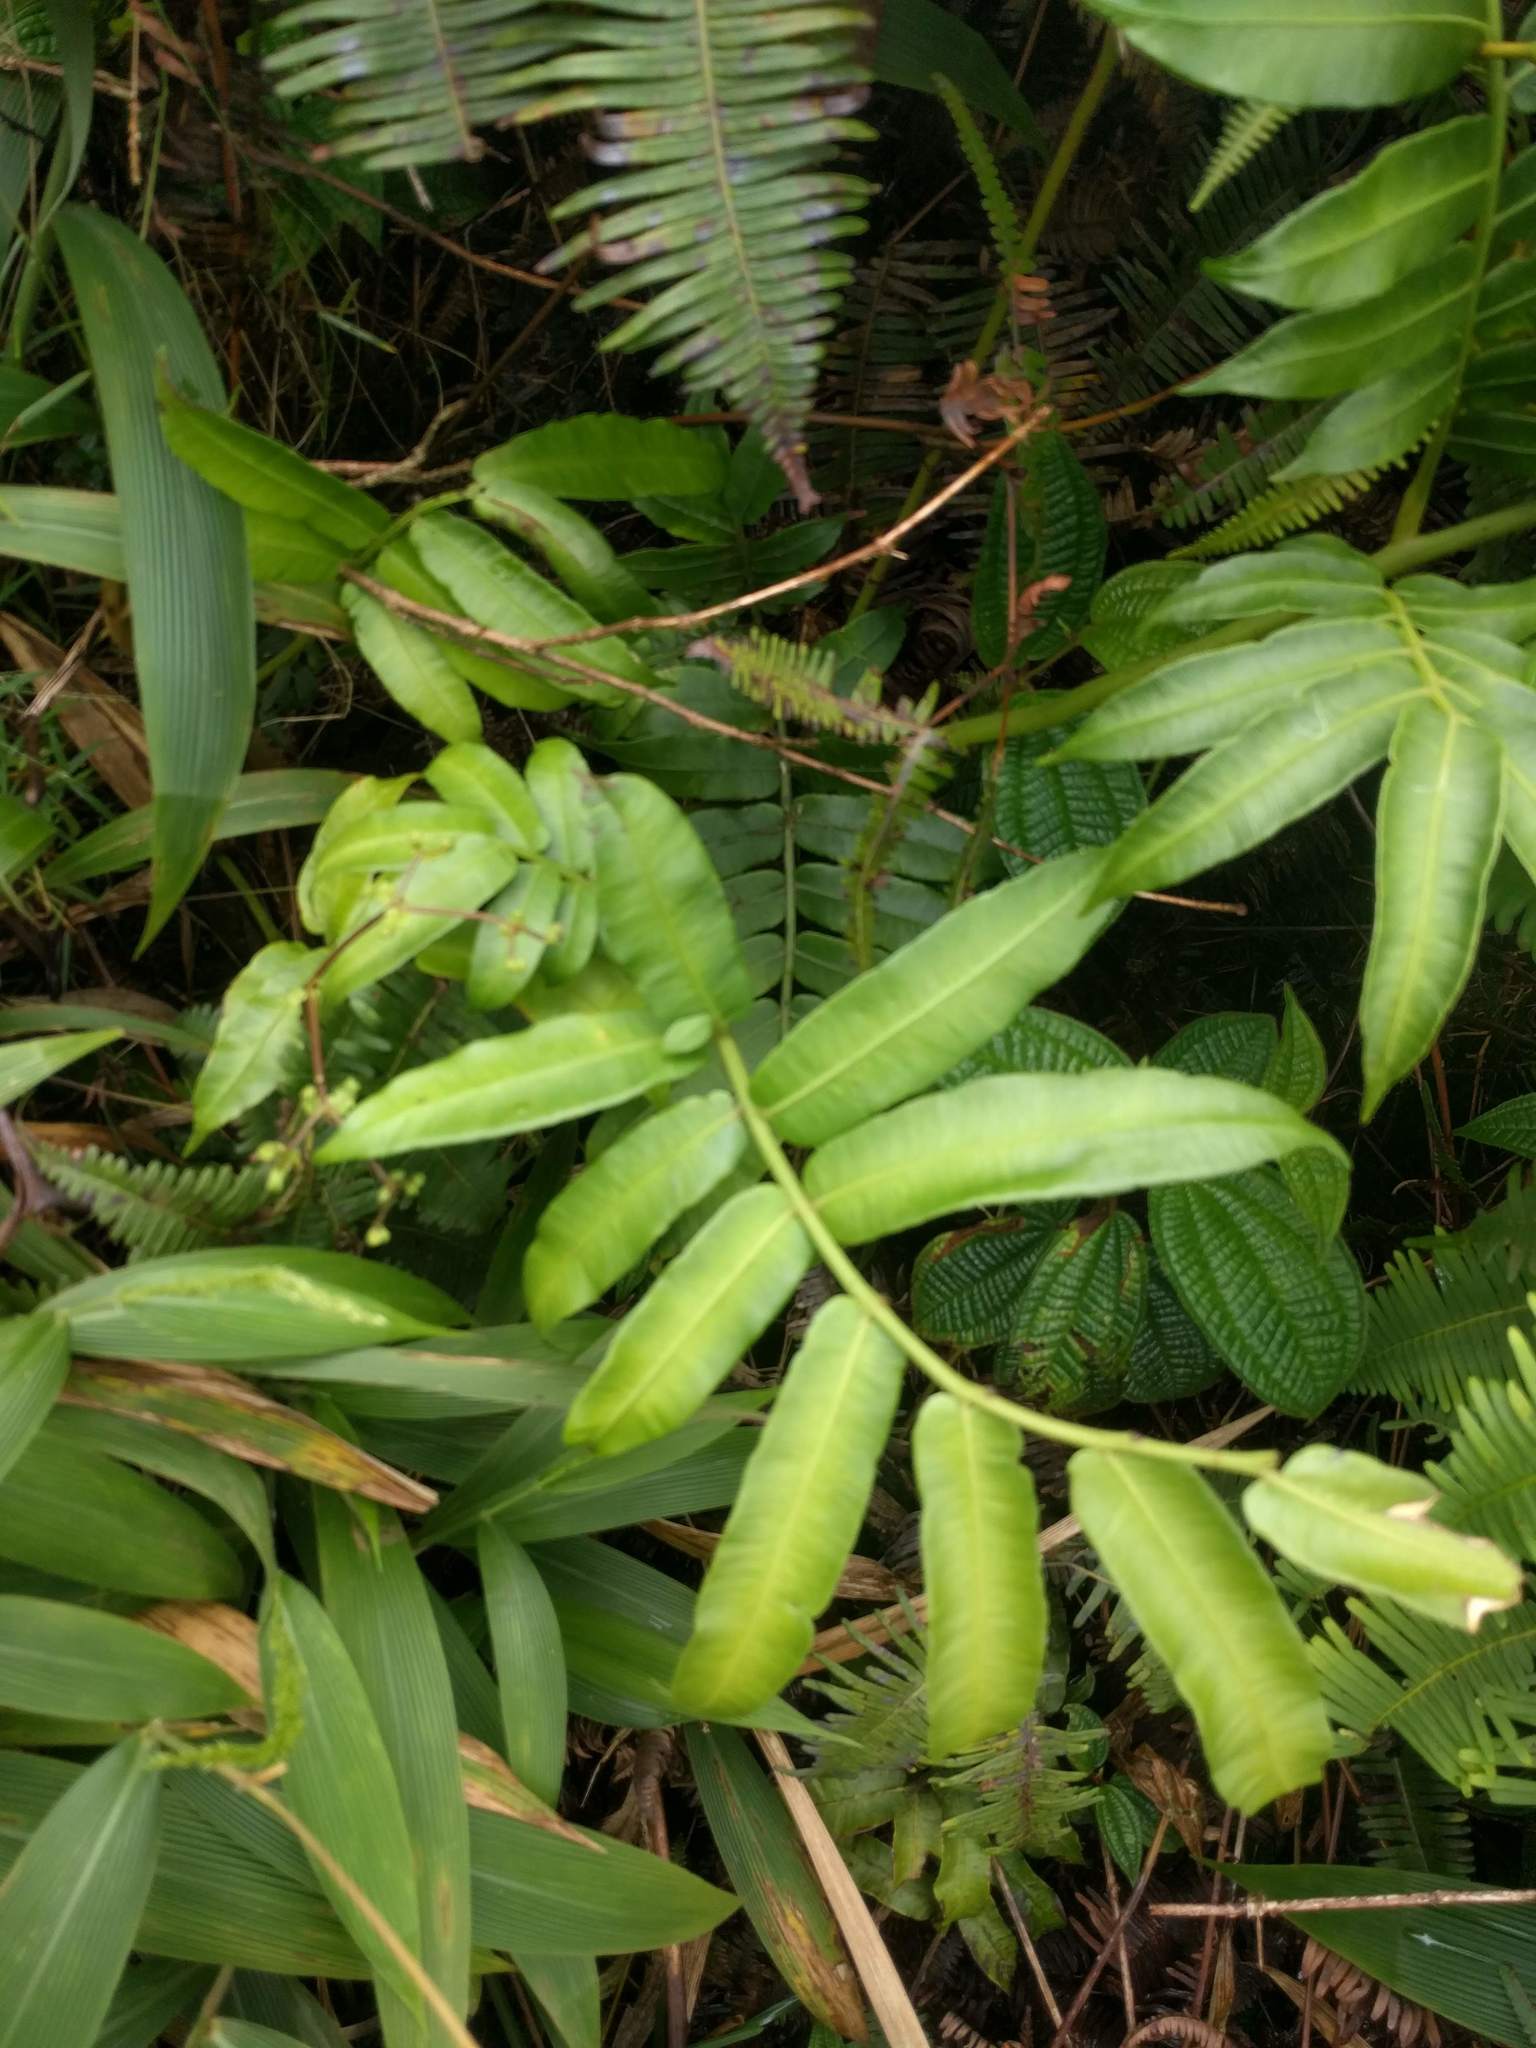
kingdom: Plantae
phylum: Tracheophyta
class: Polypodiopsida
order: Marattiales
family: Marattiaceae
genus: Angiopteris
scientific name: Angiopteris evecta
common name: Mule's-foot fern
